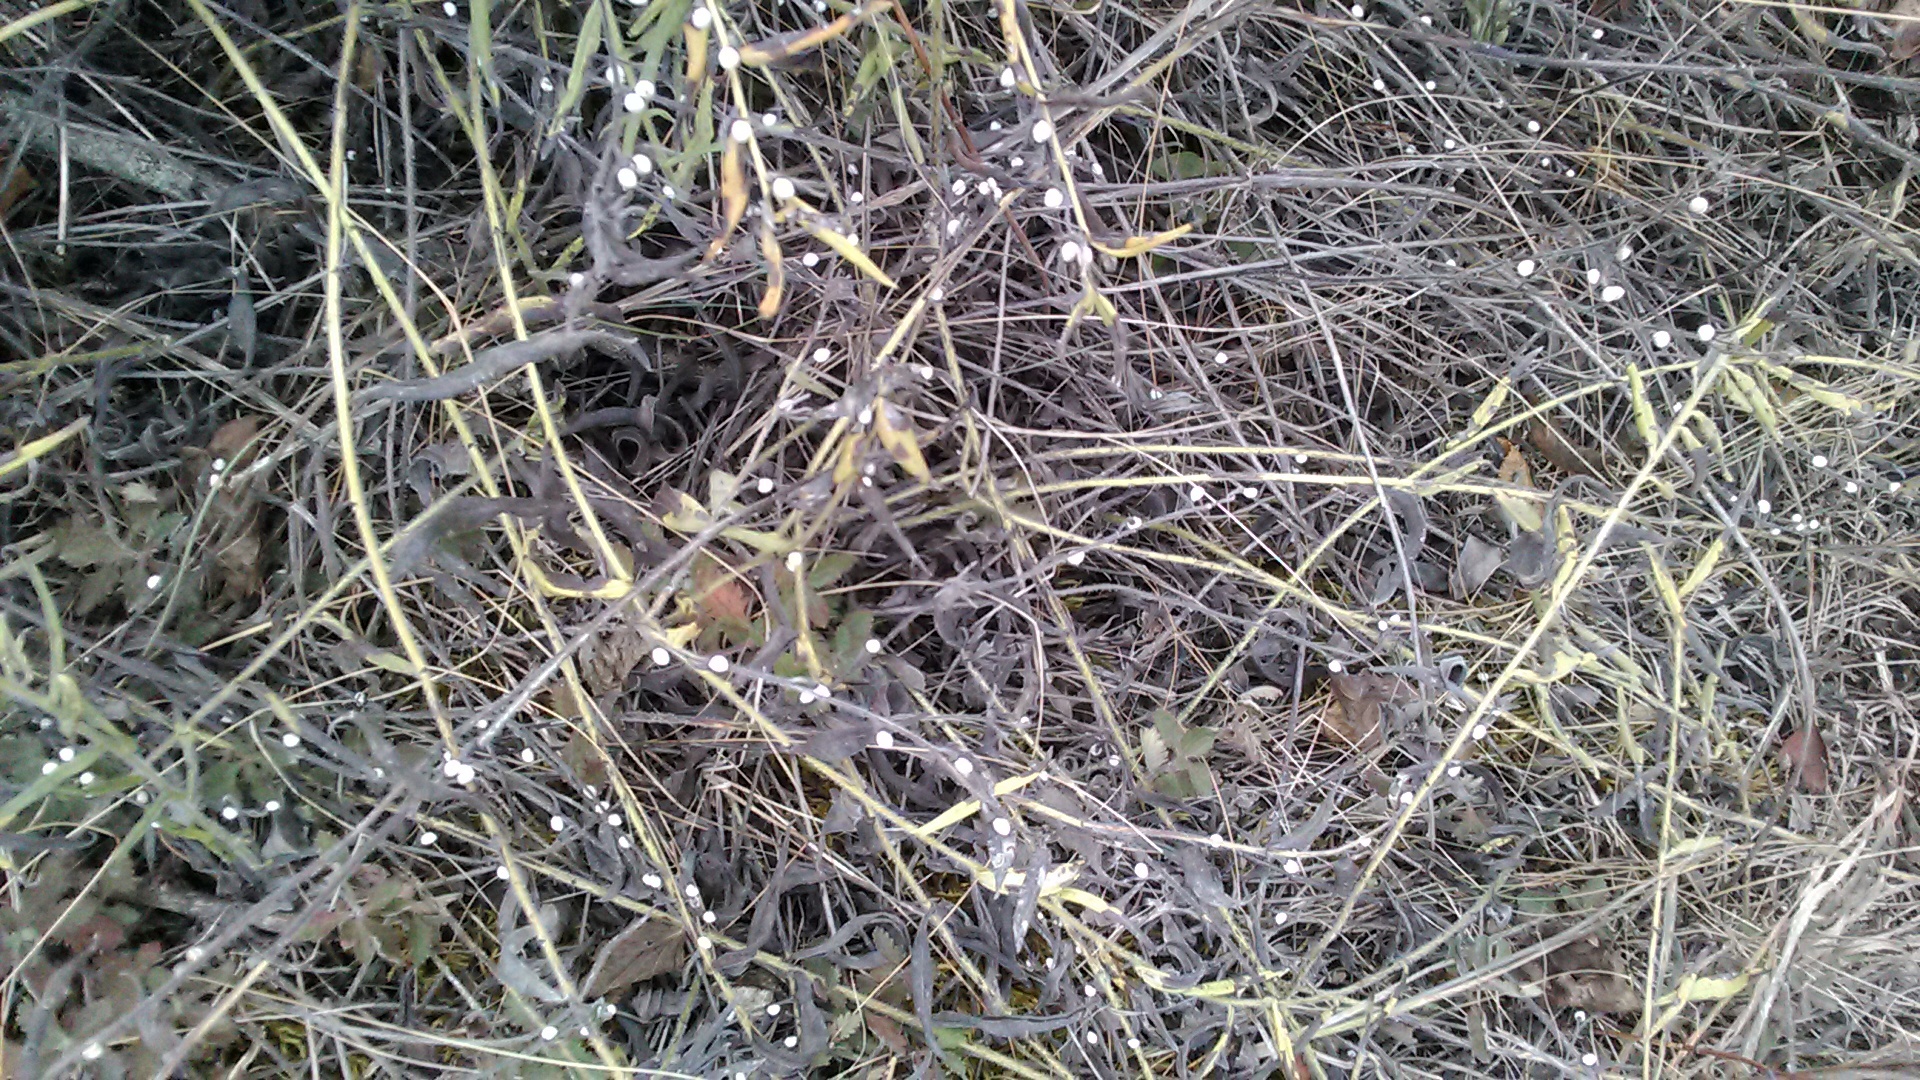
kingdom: Plantae
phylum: Tracheophyta
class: Magnoliopsida
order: Boraginales
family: Boraginaceae
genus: Aegonychon
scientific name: Aegonychon purpurocaeruleum
